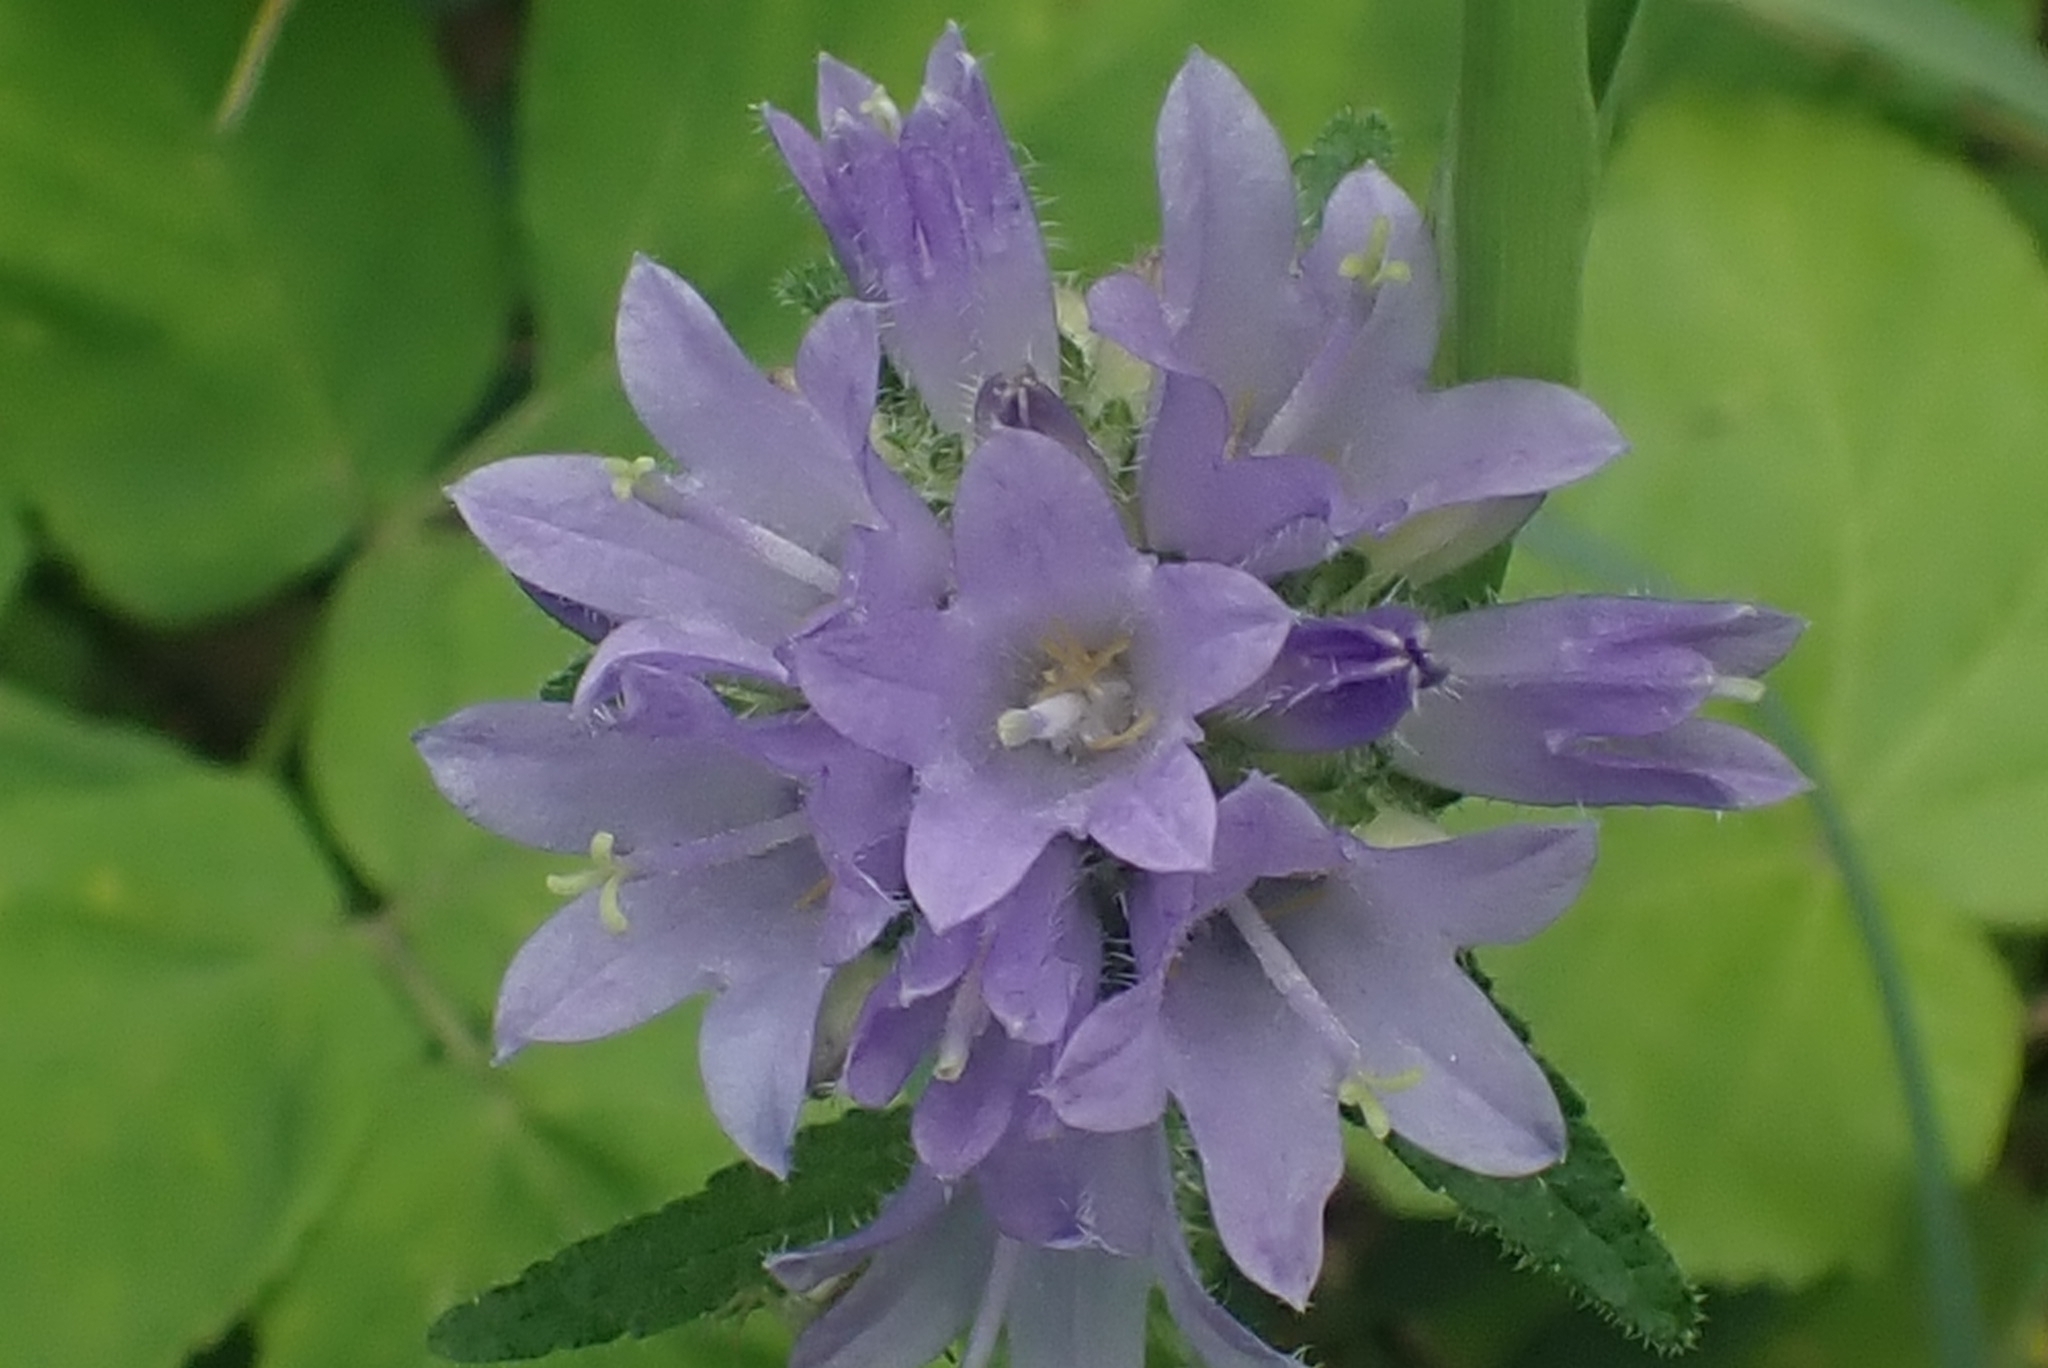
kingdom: Plantae
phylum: Tracheophyta
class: Magnoliopsida
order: Asterales
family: Campanulaceae
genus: Campanula
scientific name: Campanula cervicaria
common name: Bristly bellflower
